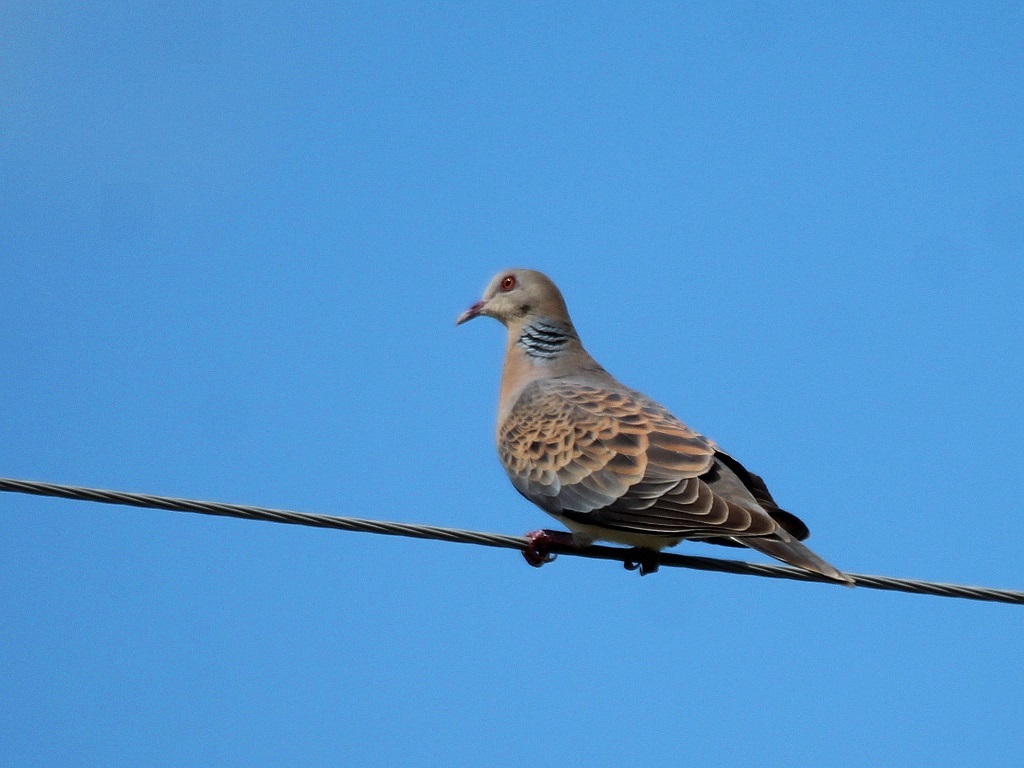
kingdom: Animalia
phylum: Chordata
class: Aves
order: Columbiformes
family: Columbidae
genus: Streptopelia
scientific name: Streptopelia orientalis
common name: Oriental turtle dove
